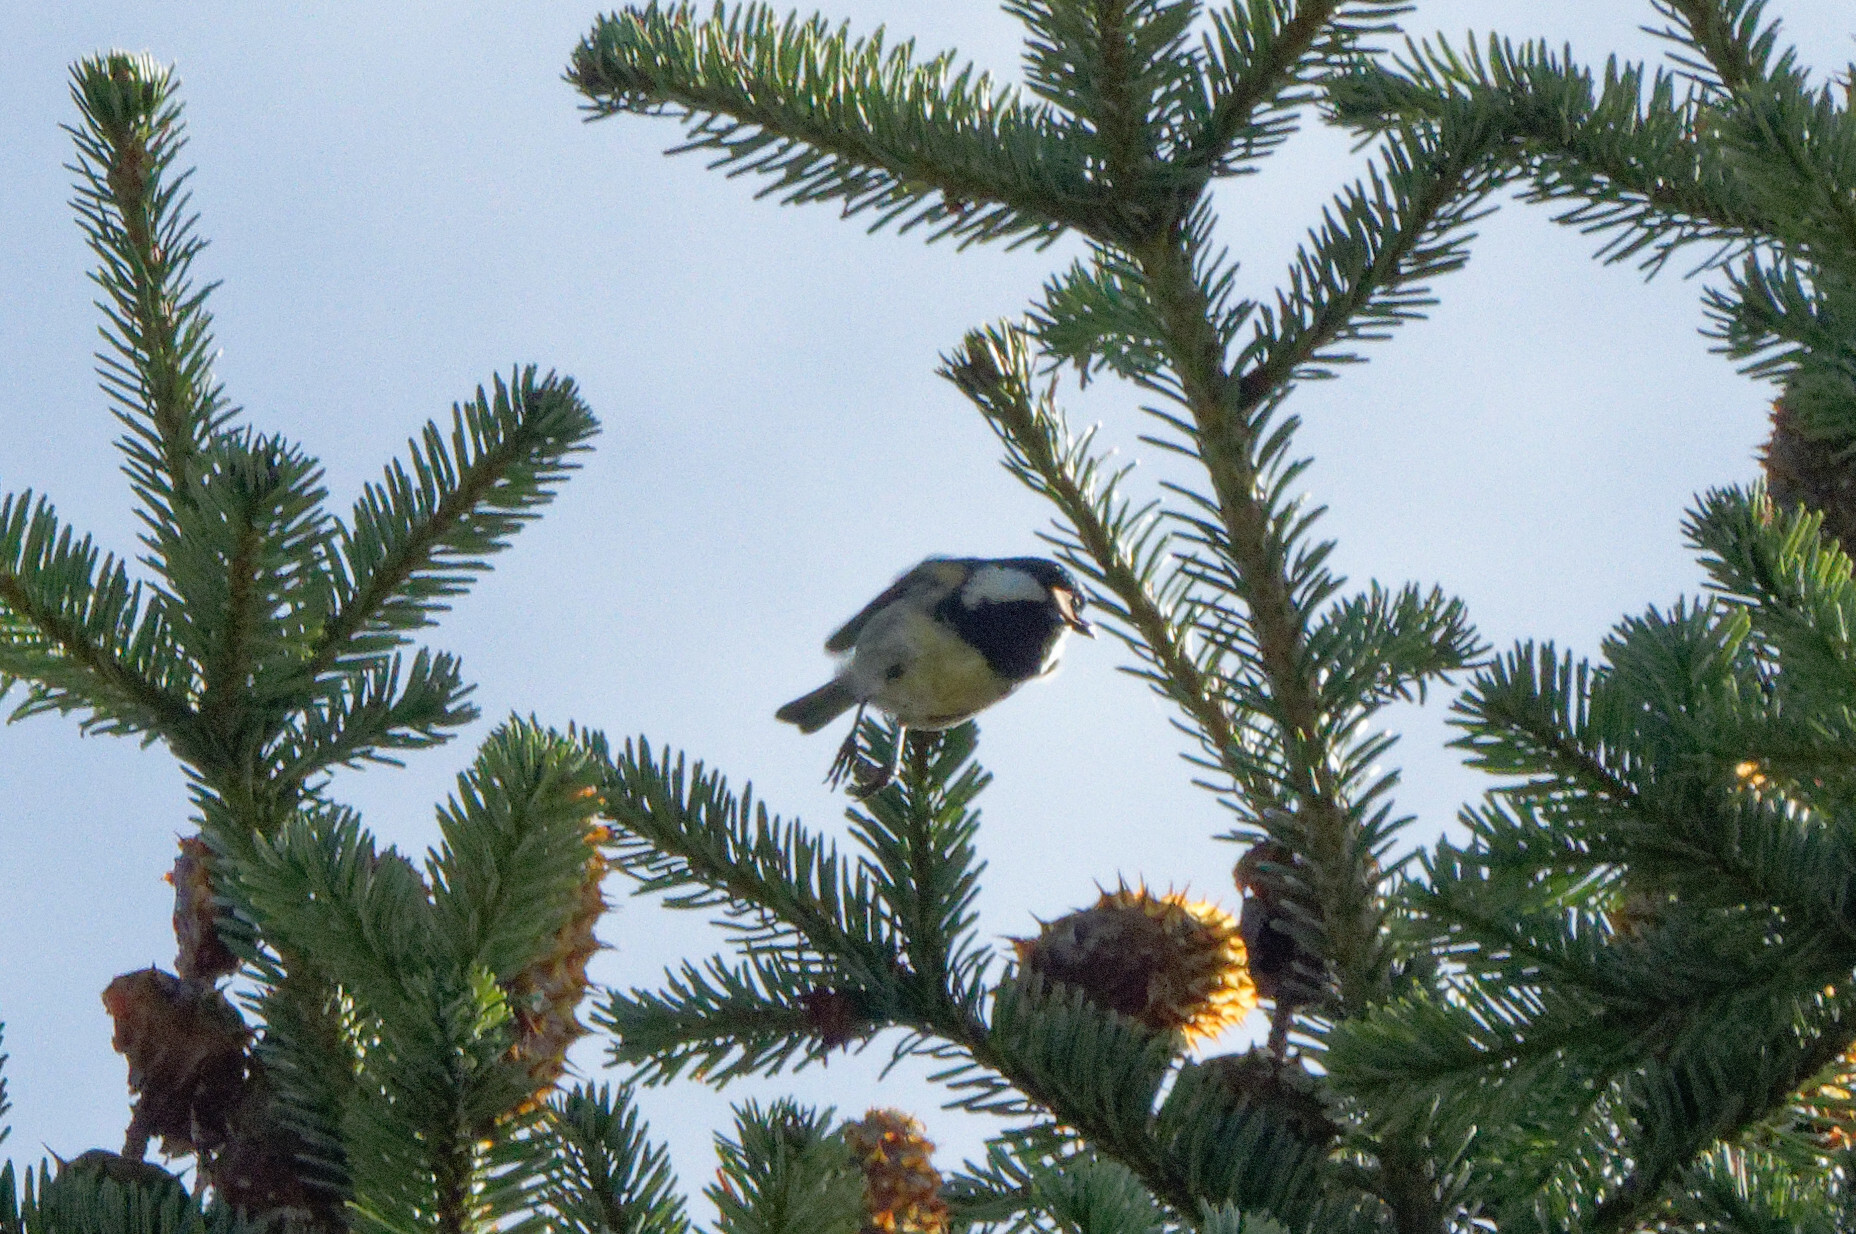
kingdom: Animalia
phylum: Chordata
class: Aves
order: Passeriformes
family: Paridae
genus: Periparus
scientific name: Periparus ater
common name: Coal tit
